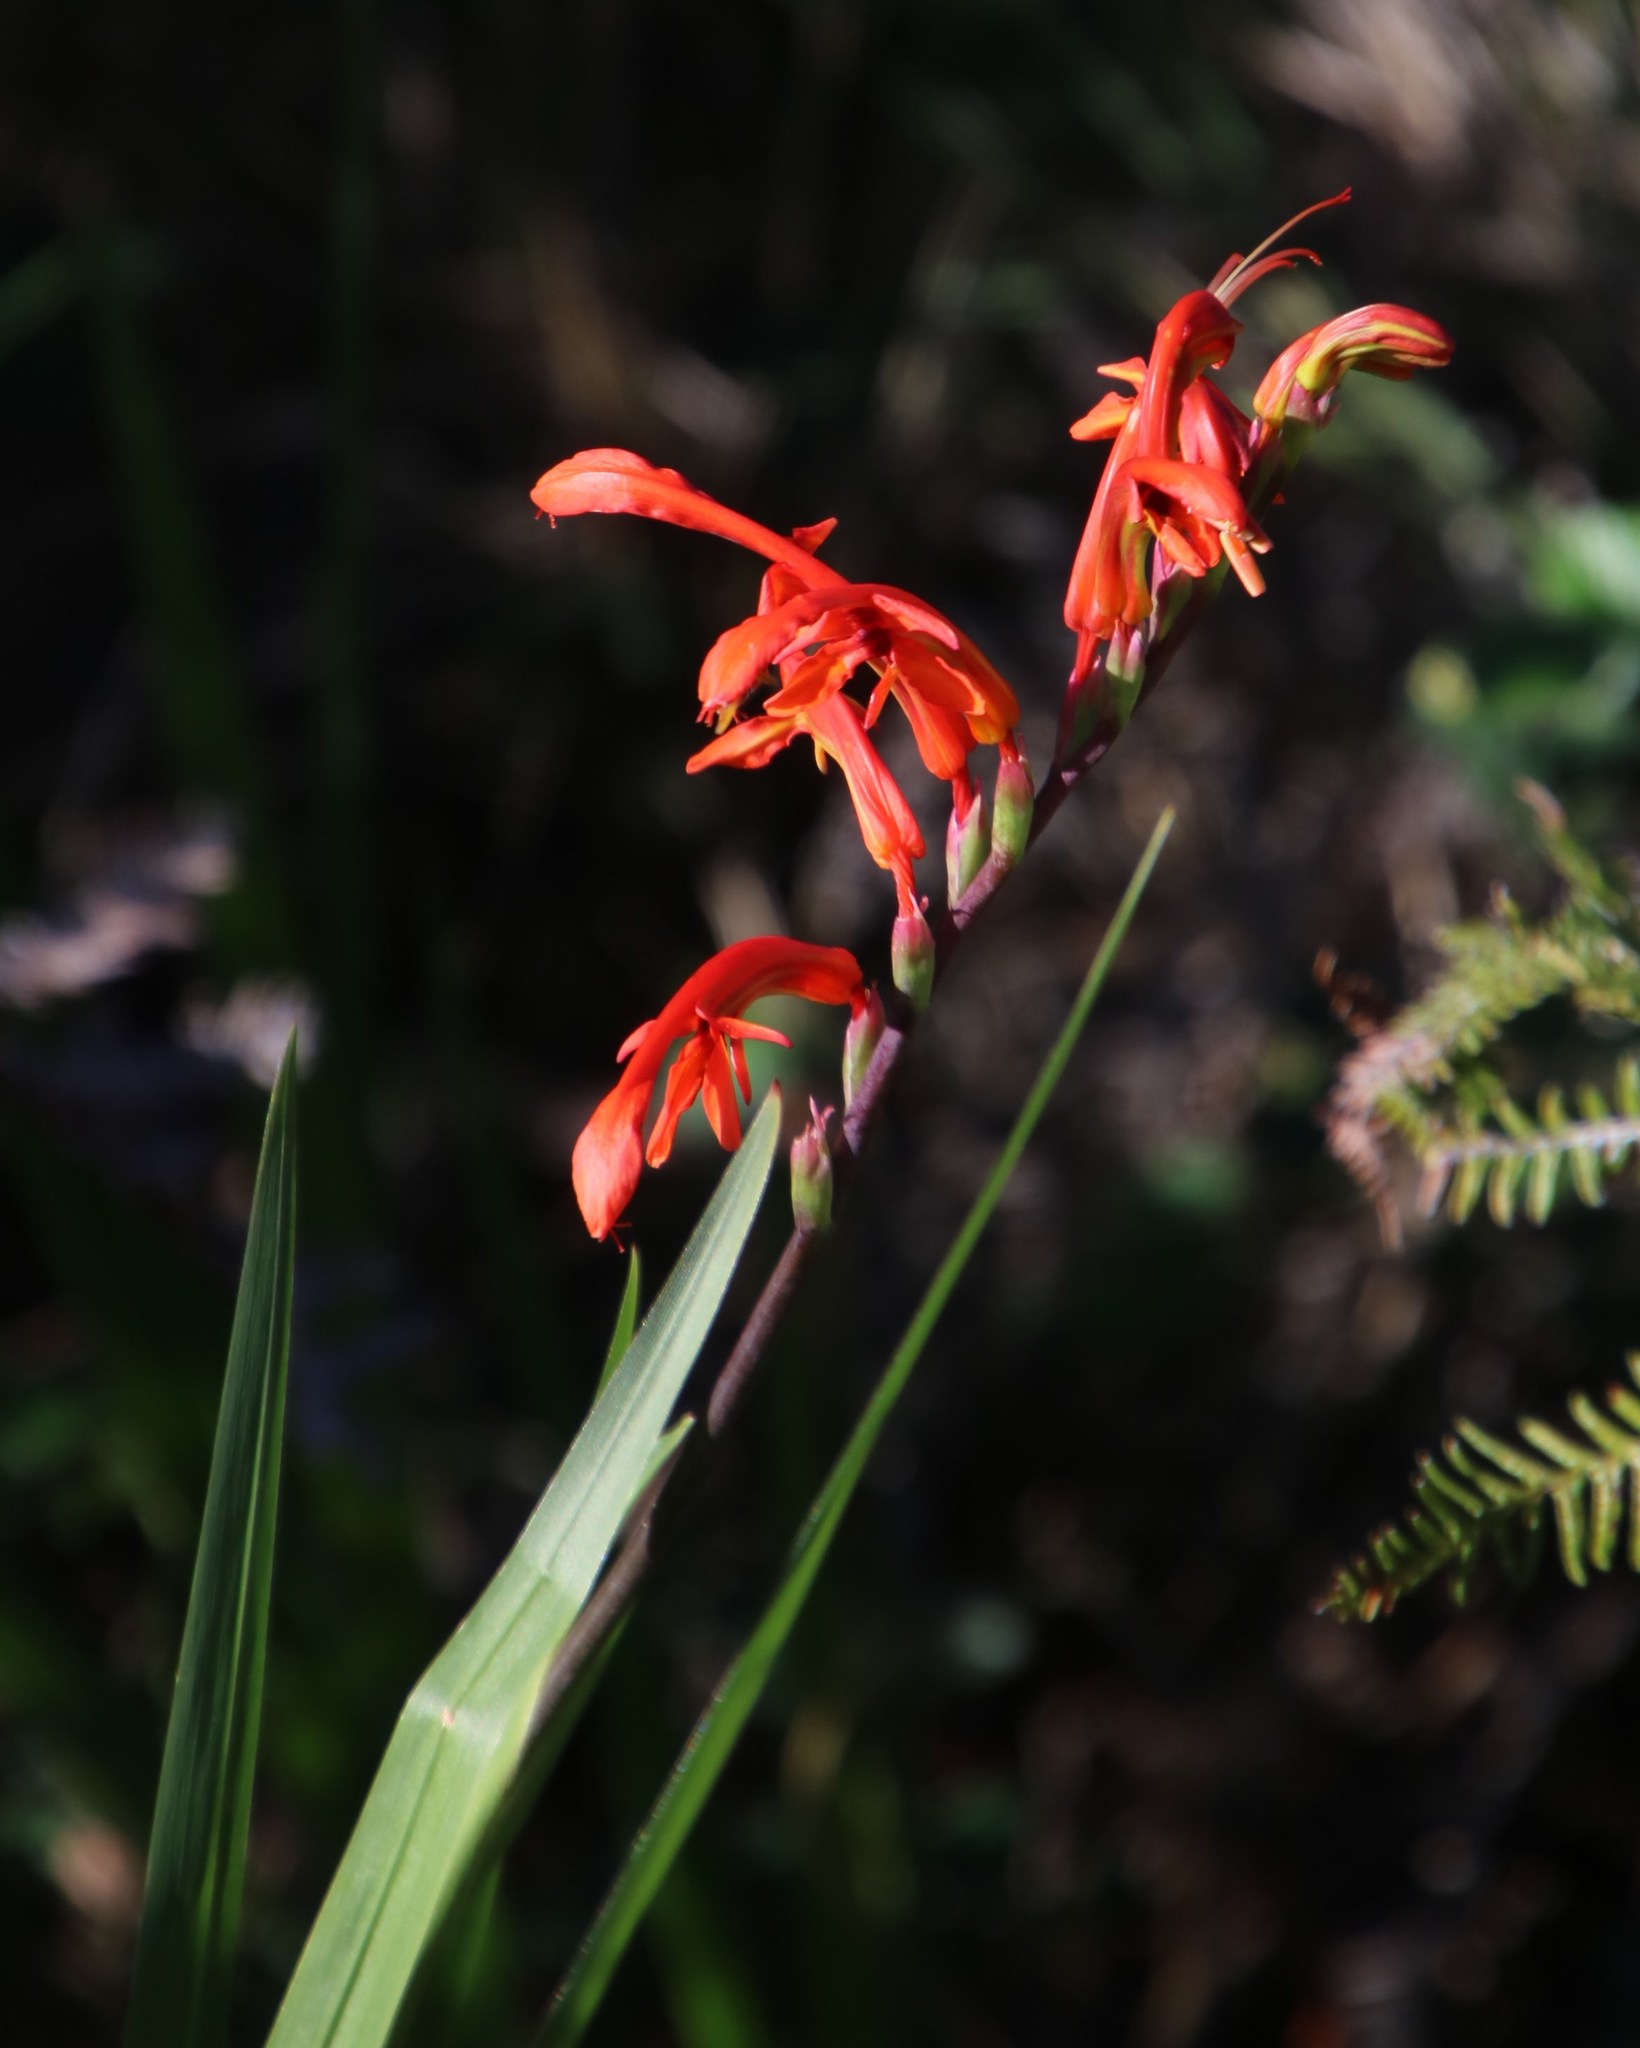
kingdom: Plantae
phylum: Tracheophyta
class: Liliopsida
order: Asparagales
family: Iridaceae
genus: Chasmanthe
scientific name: Chasmanthe aethiopica
